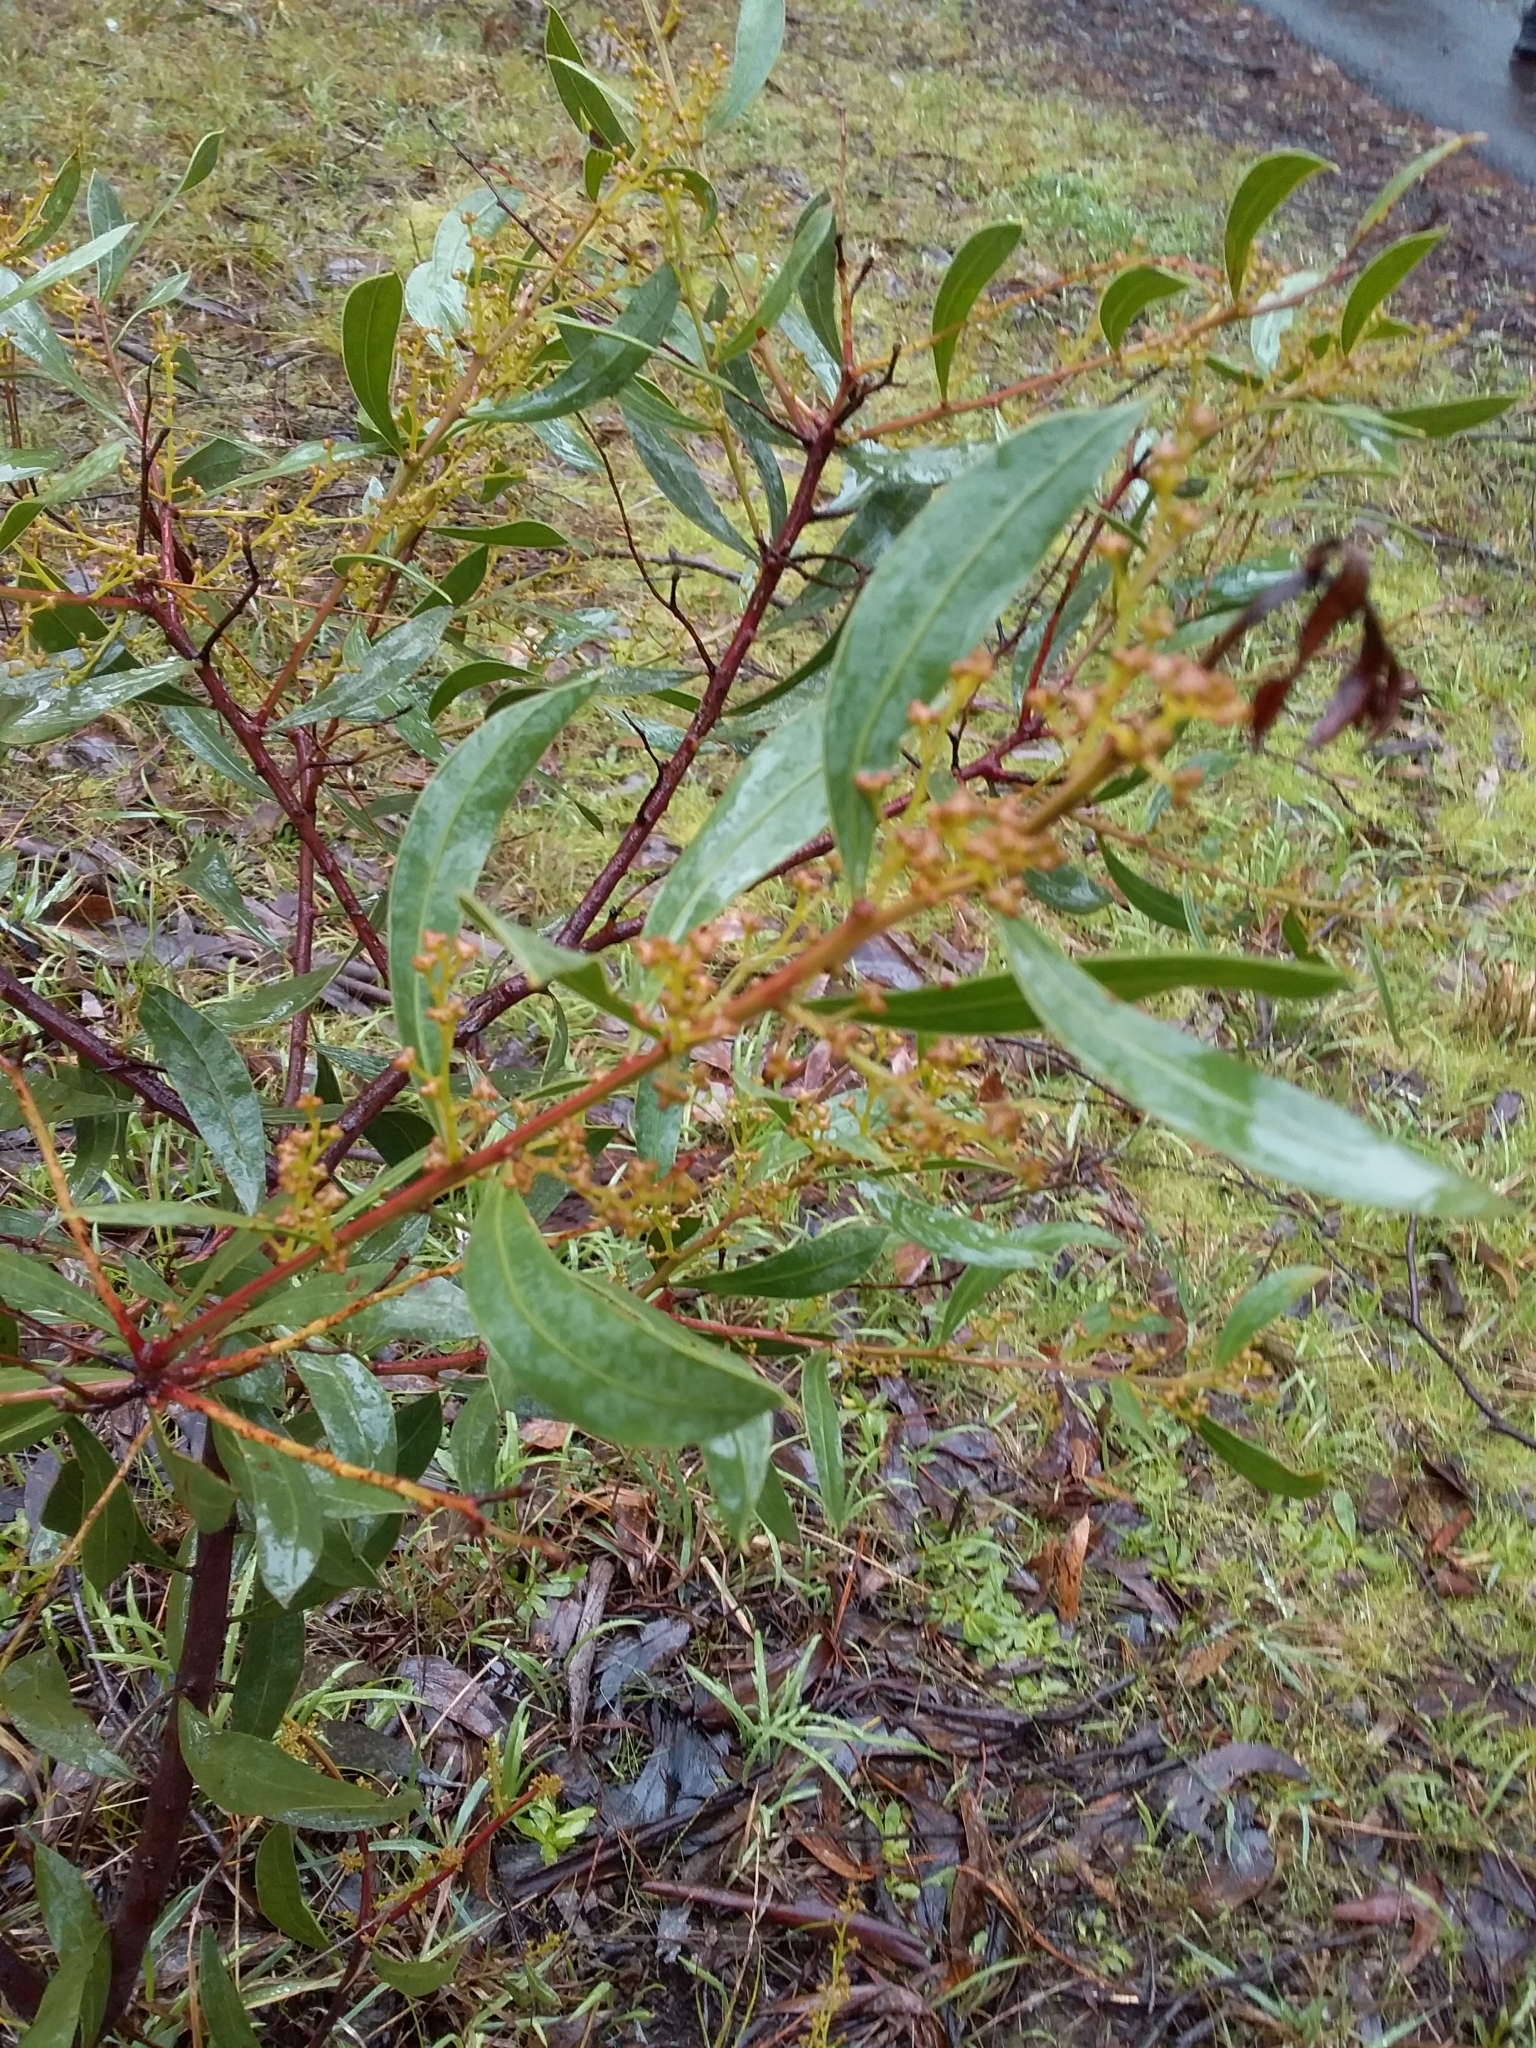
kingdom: Plantae
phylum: Tracheophyta
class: Magnoliopsida
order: Fabales
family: Fabaceae
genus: Acacia
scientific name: Acacia myrtifolia
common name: Myrtle wattle
